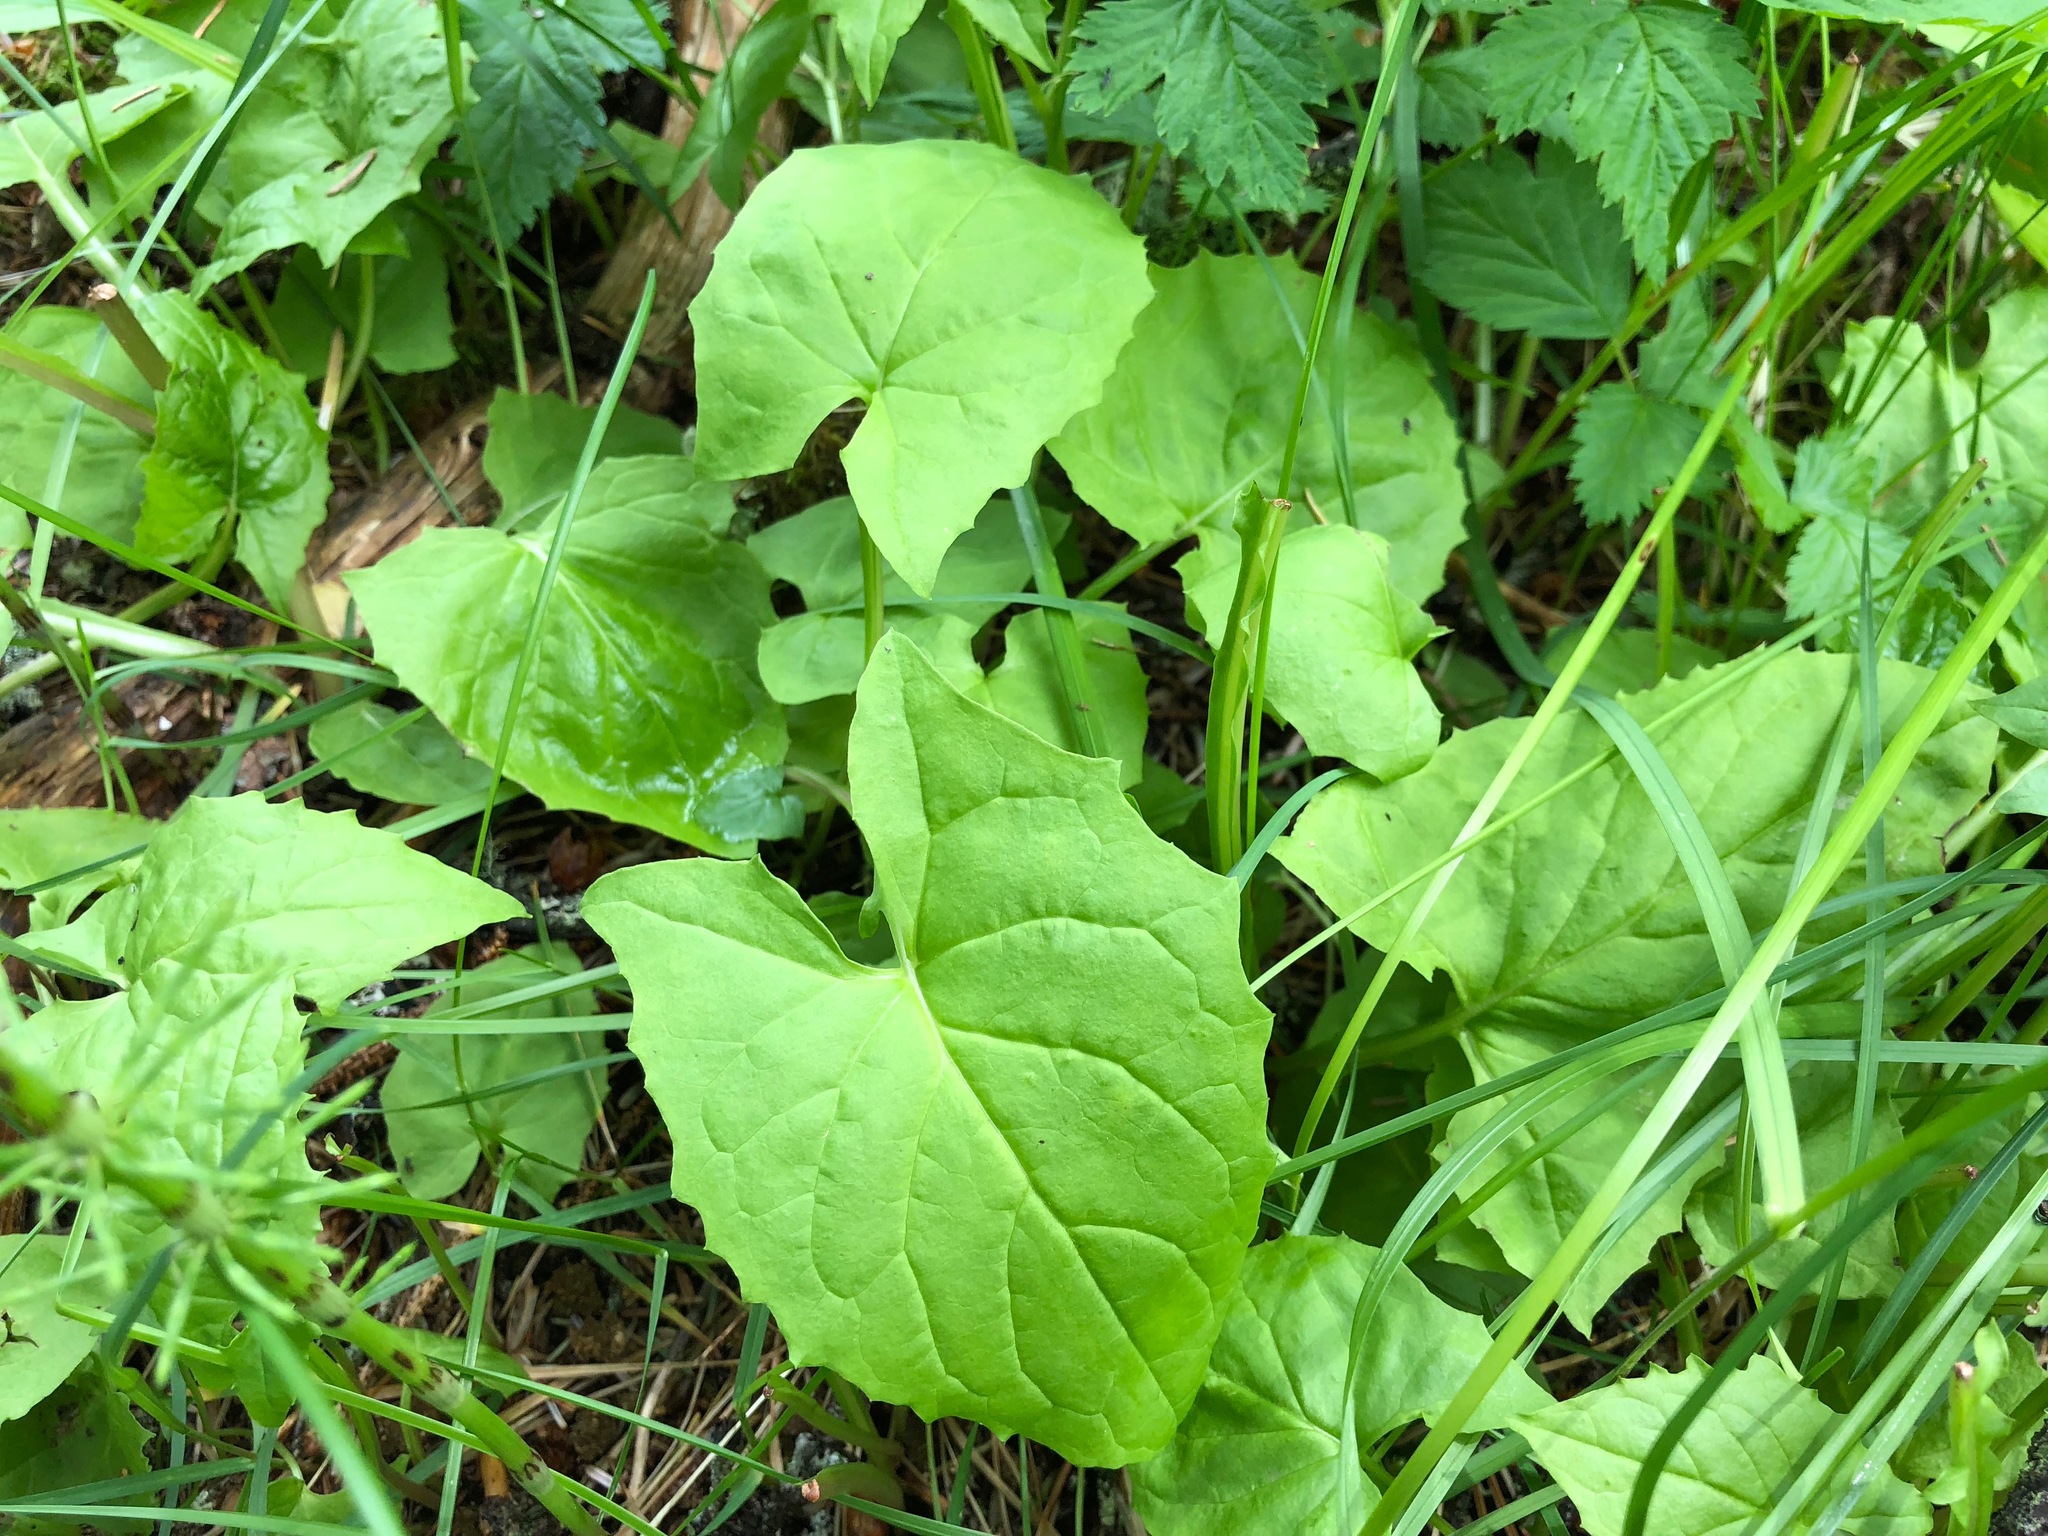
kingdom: Plantae
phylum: Tracheophyta
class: Magnoliopsida
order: Asterales
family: Asteraceae
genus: Nabalus
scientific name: Nabalus hastatus
